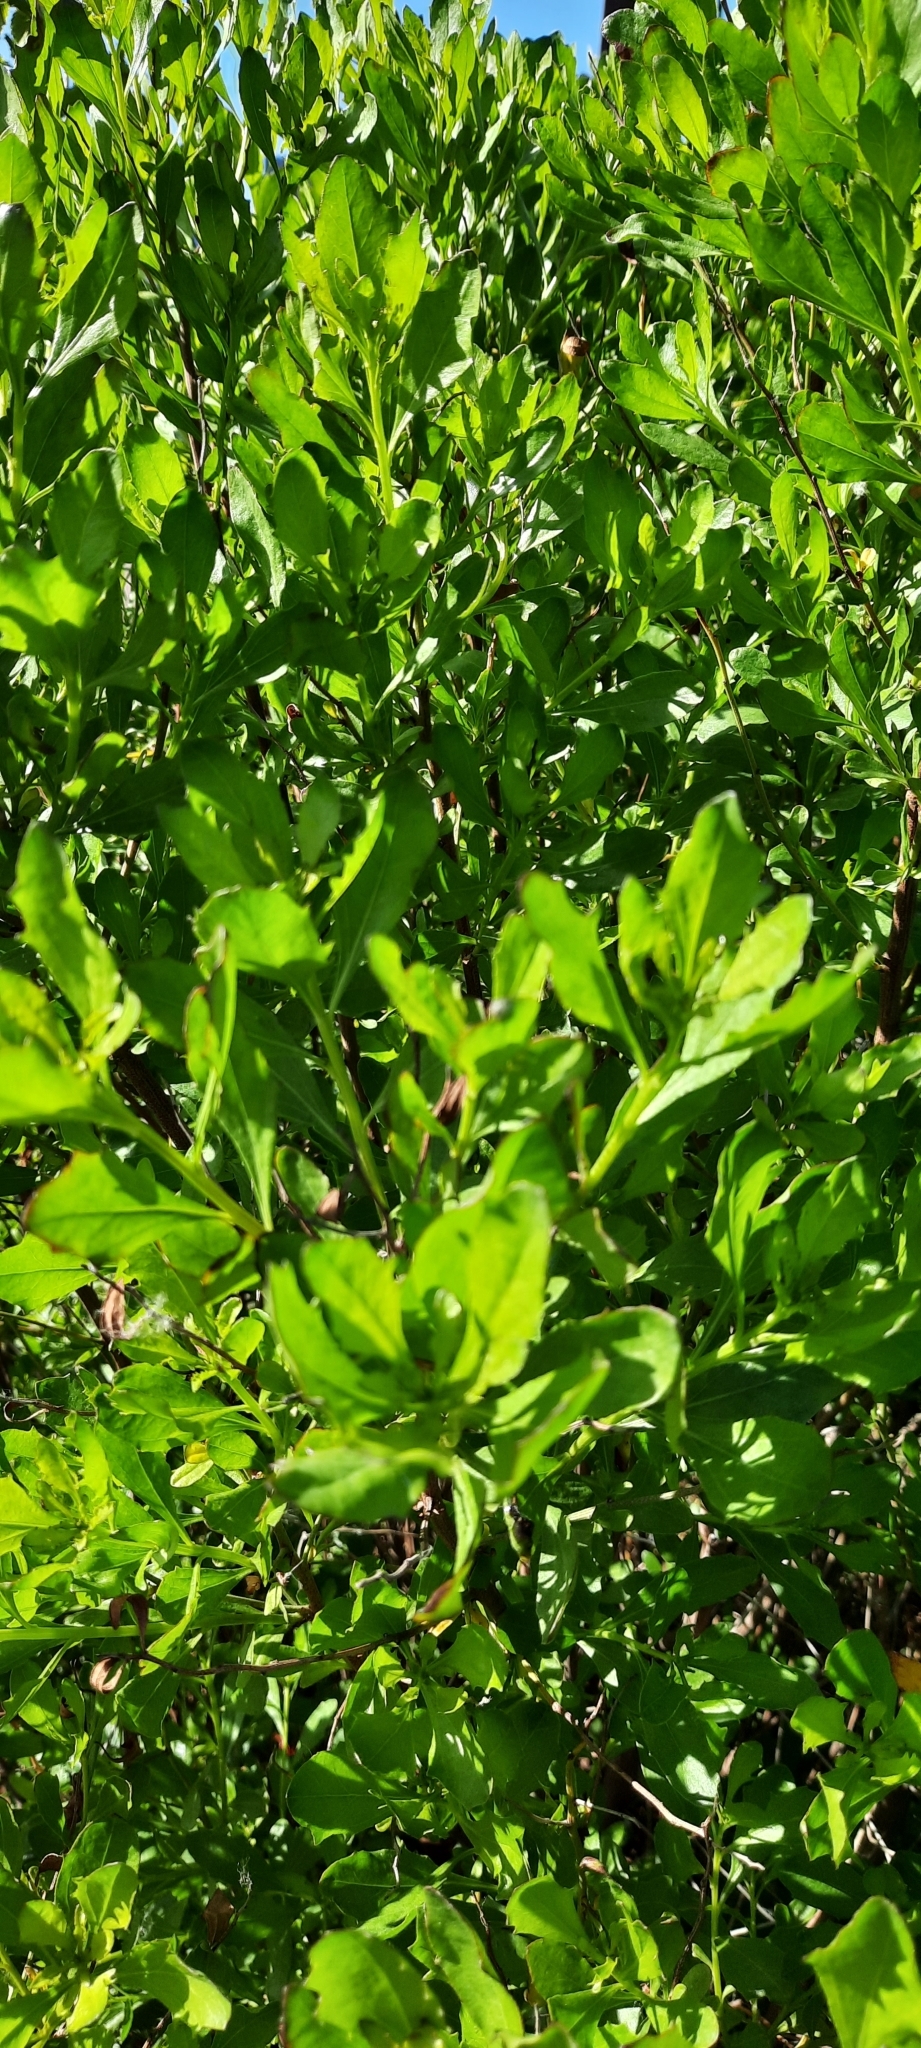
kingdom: Plantae
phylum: Tracheophyta
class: Magnoliopsida
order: Asterales
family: Asteraceae
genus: Baccharis
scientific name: Baccharis halimifolia
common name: Eastern baccharis
